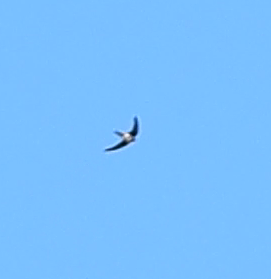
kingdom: Animalia
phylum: Chordata
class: Aves
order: Apodiformes
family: Apodidae
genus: Tachymarptis
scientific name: Tachymarptis melba
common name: Alpine swift
